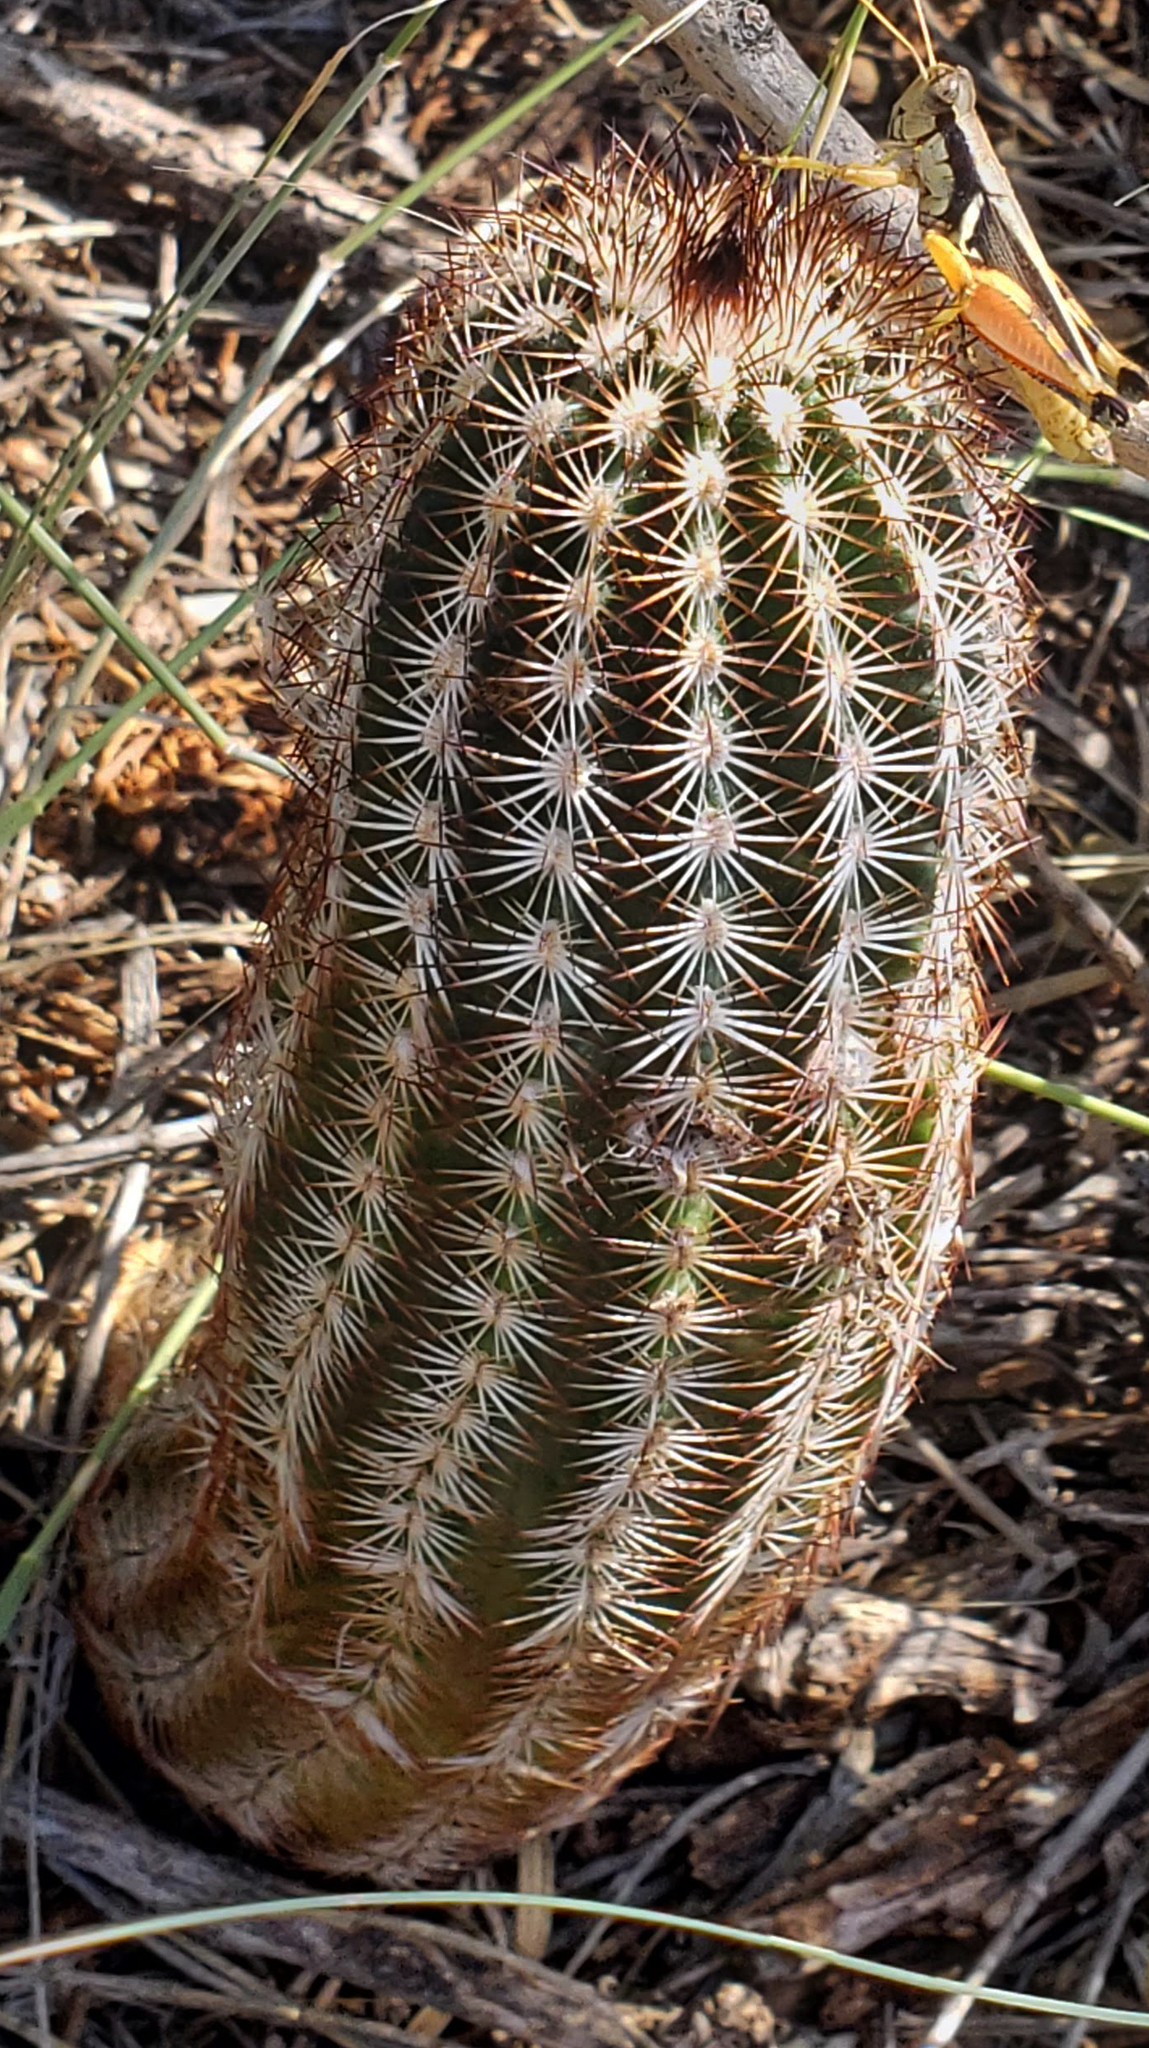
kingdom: Plantae
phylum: Tracheophyta
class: Magnoliopsida
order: Caryophyllales
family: Cactaceae
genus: Echinocereus
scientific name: Echinocereus reichenbachii
